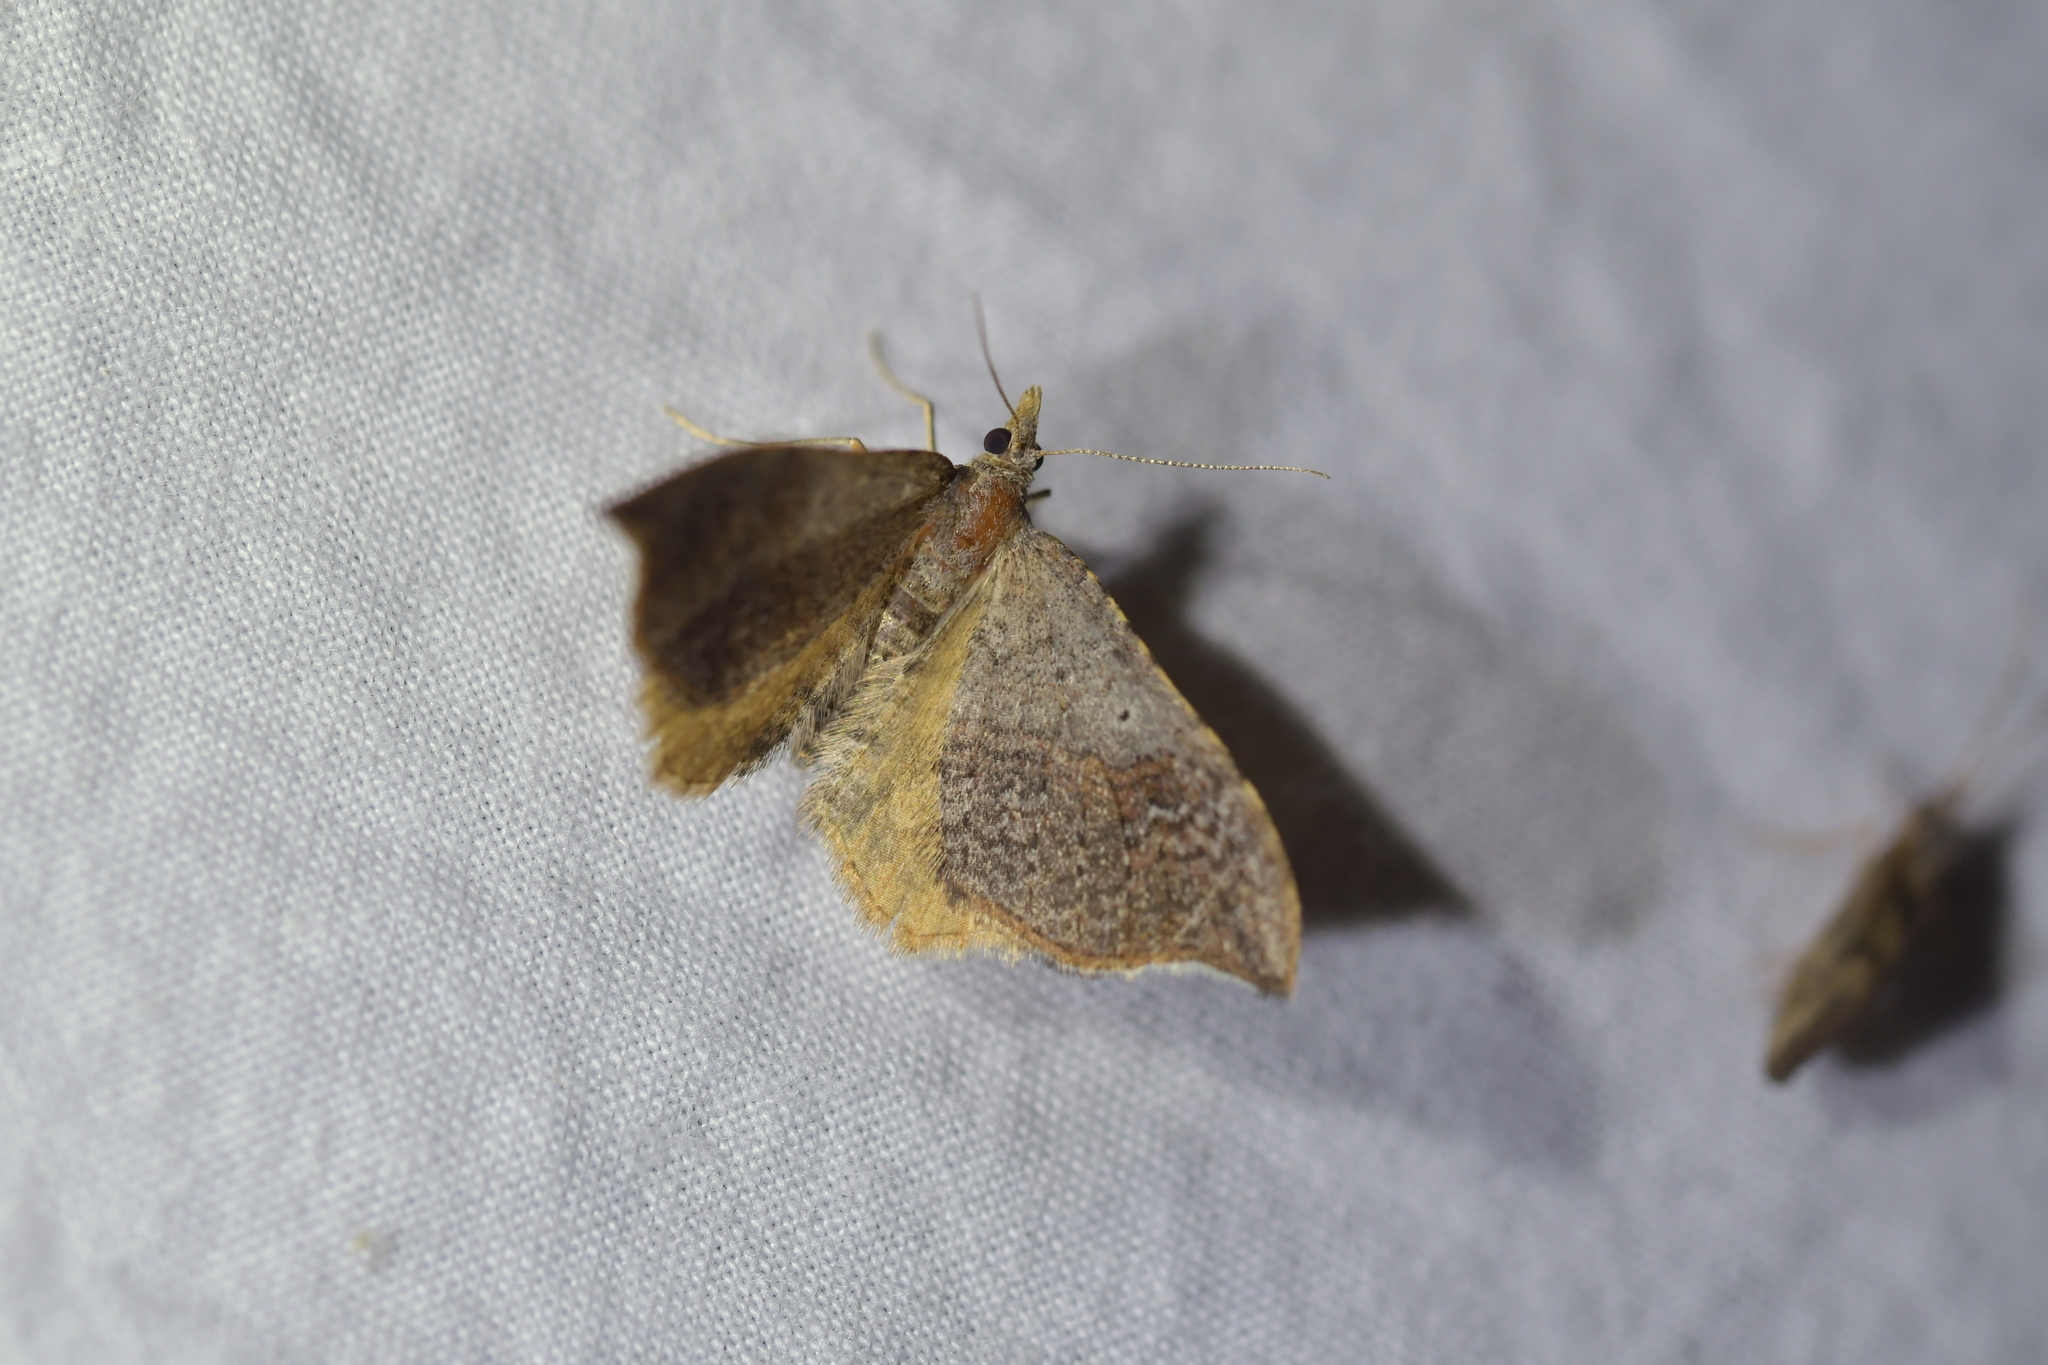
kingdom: Animalia
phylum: Arthropoda
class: Insecta
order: Lepidoptera
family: Geometridae
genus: Homodotis
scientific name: Homodotis megaspilata
